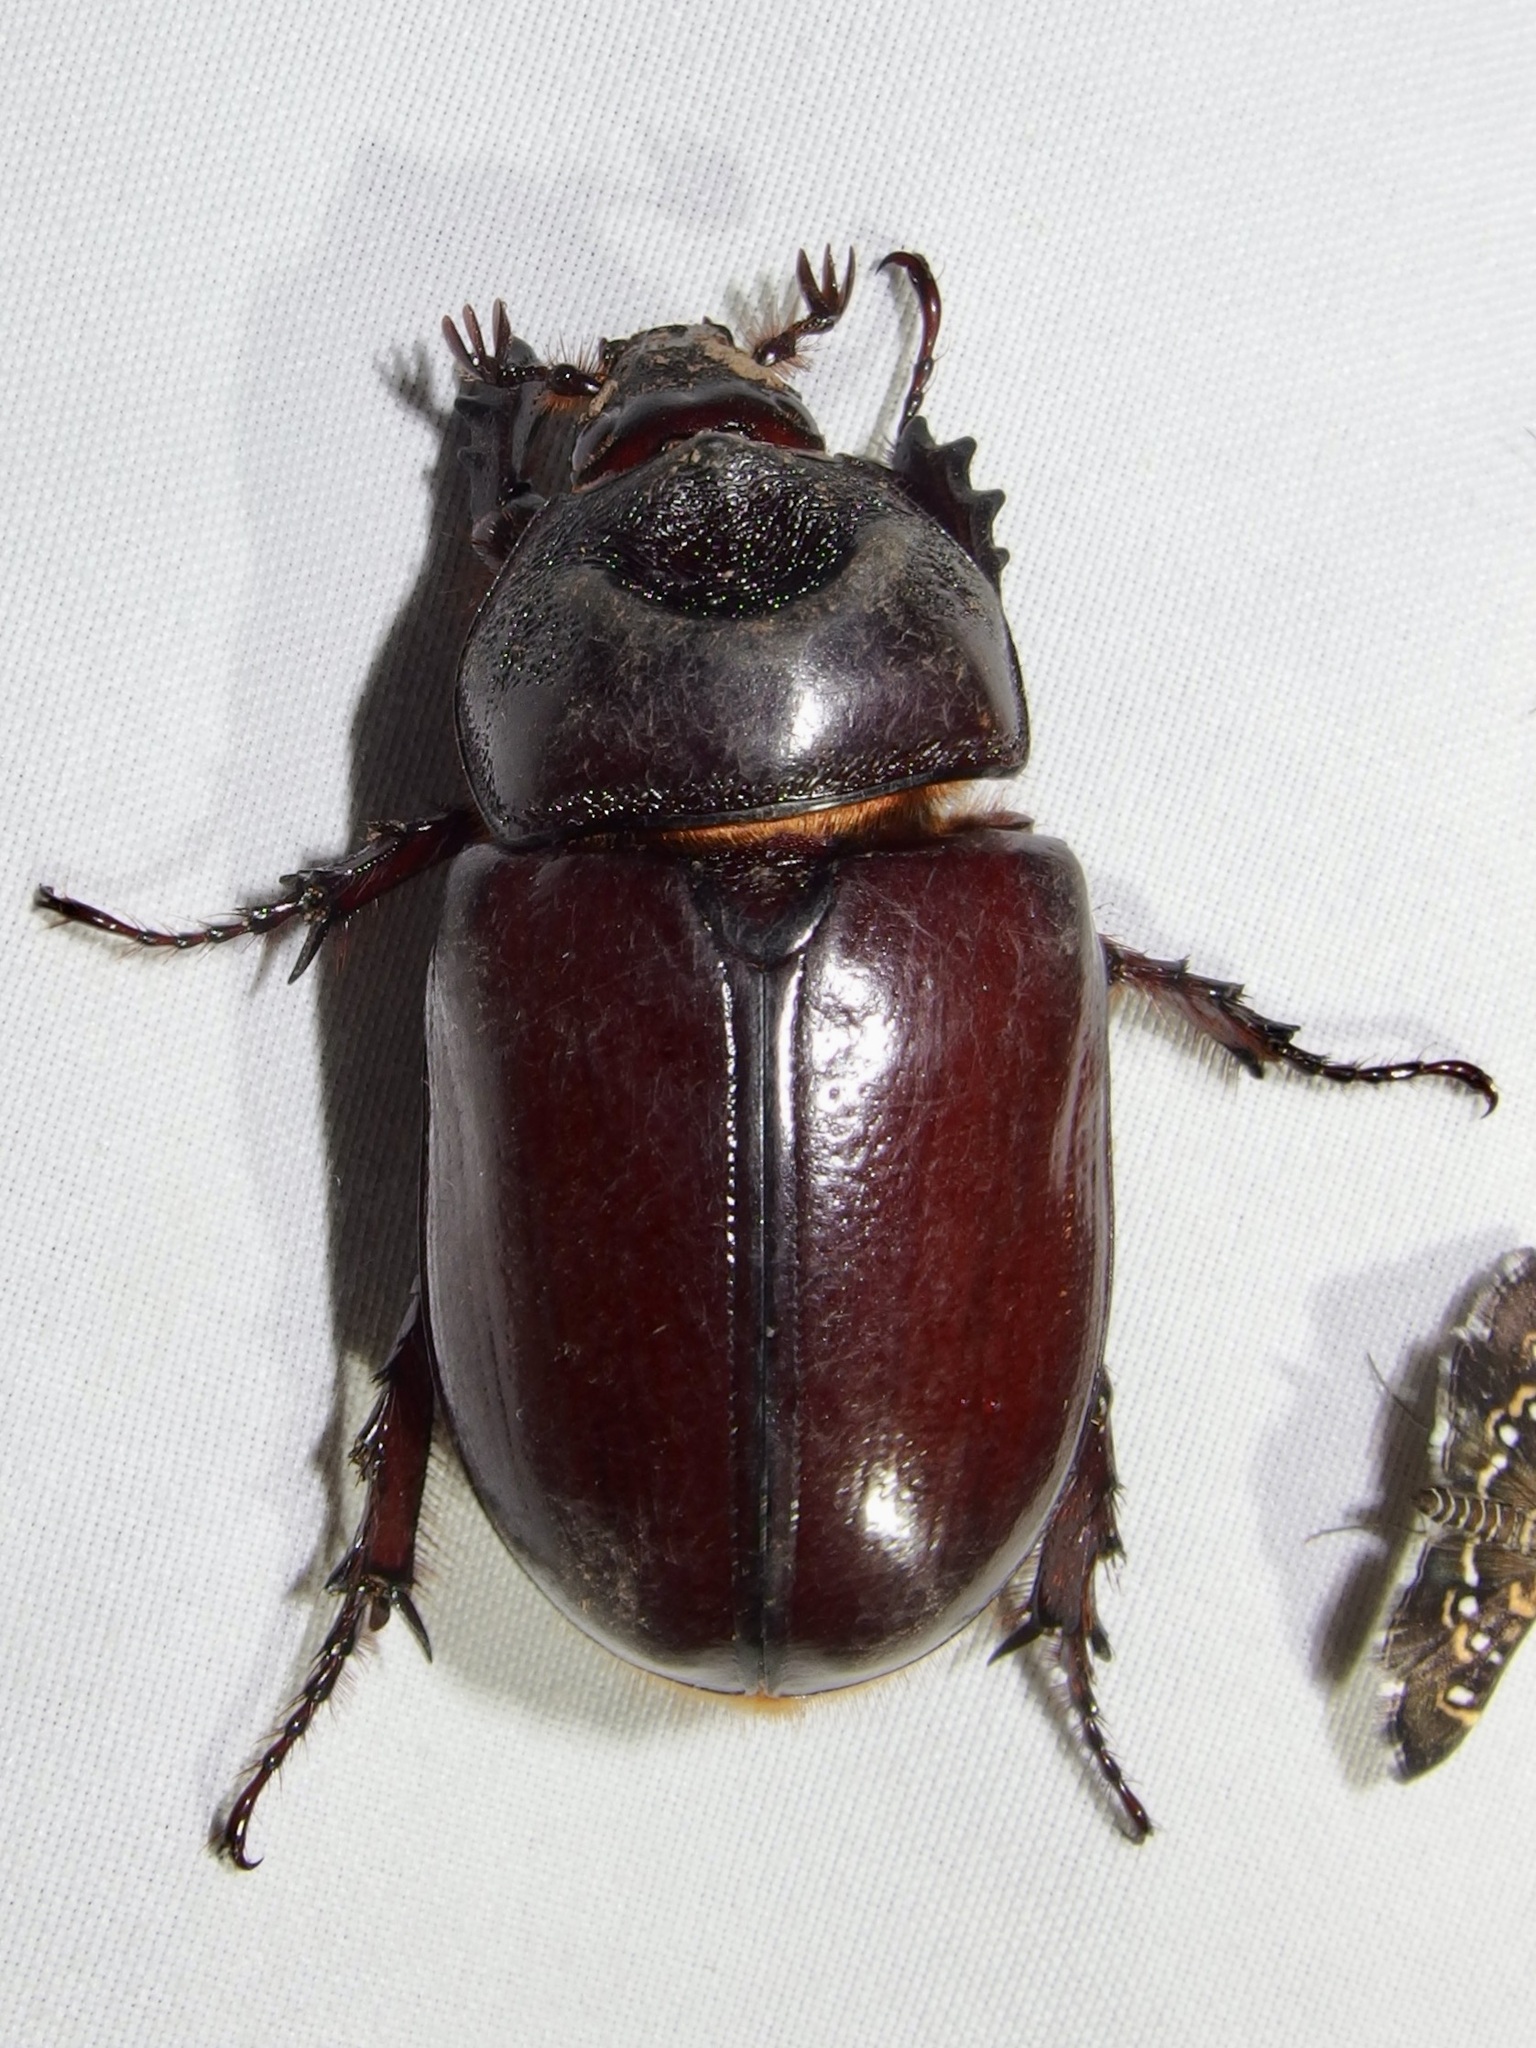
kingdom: Animalia
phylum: Arthropoda
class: Insecta
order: Coleoptera
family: Scarabaeidae
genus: Strategus
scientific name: Strategus aloeus
